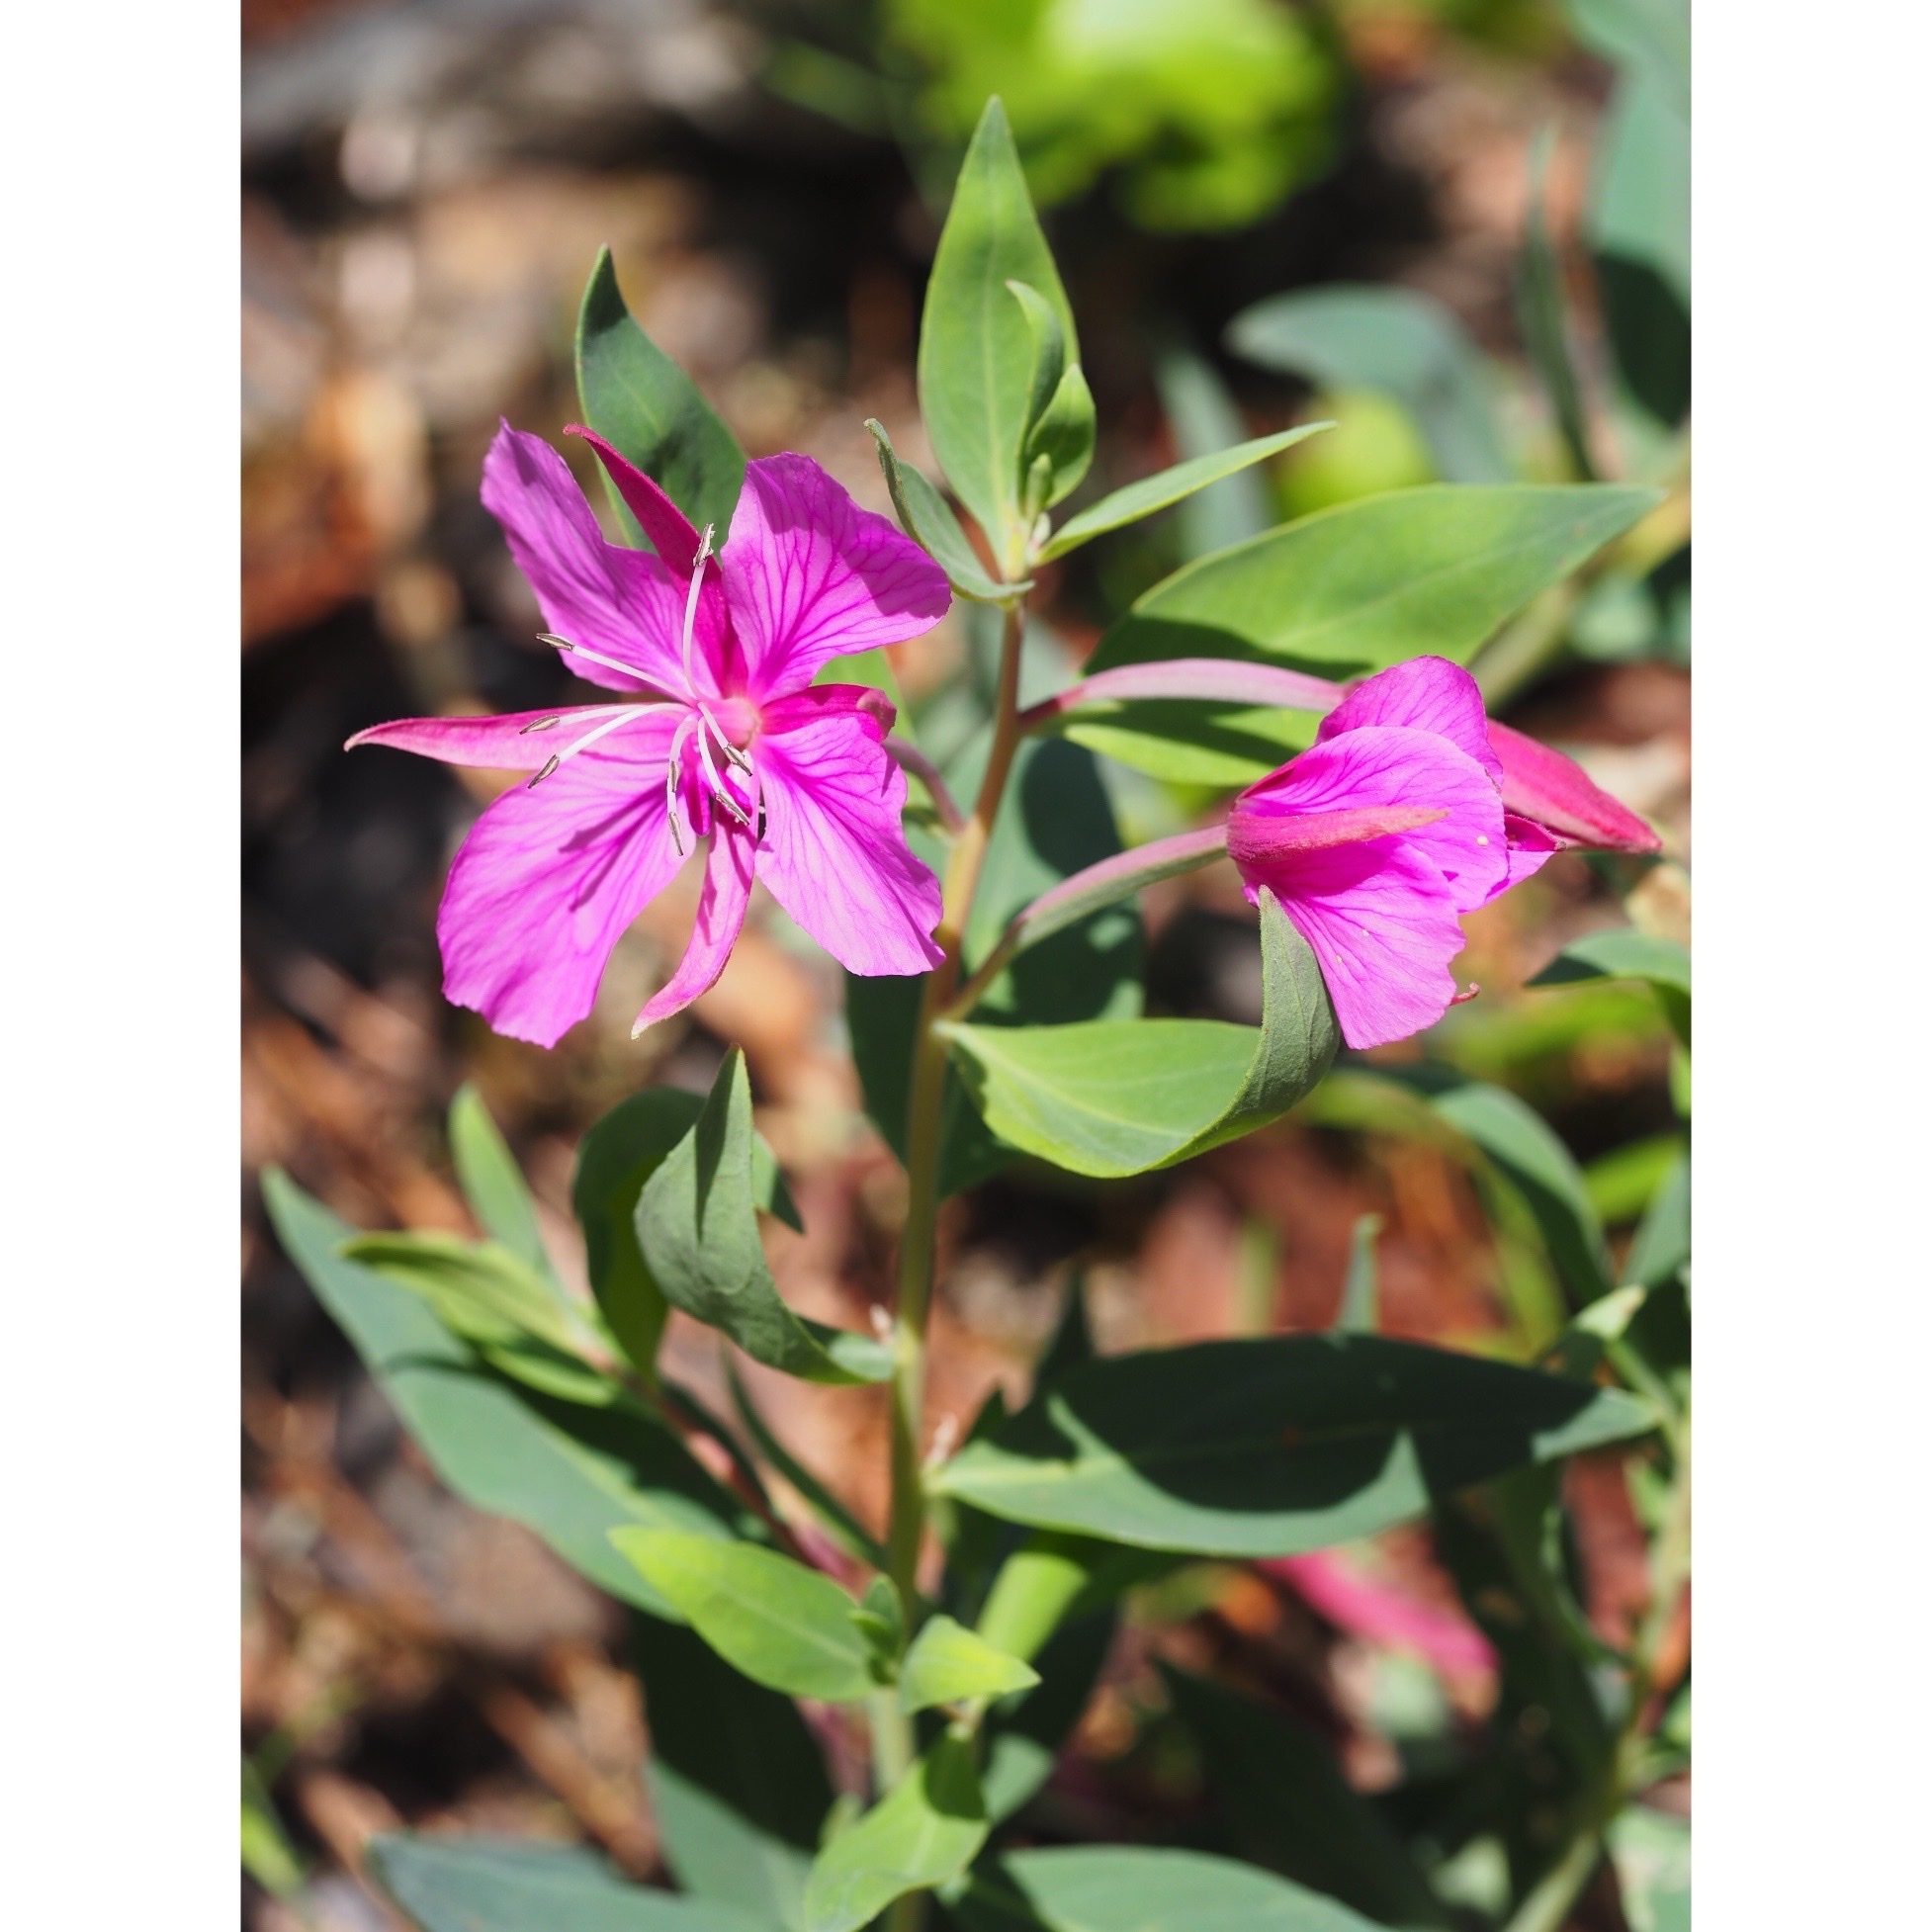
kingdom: Plantae
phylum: Tracheophyta
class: Magnoliopsida
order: Myrtales
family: Onagraceae
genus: Chamaenerion
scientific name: Chamaenerion latifolium
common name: Dwarf fireweed
